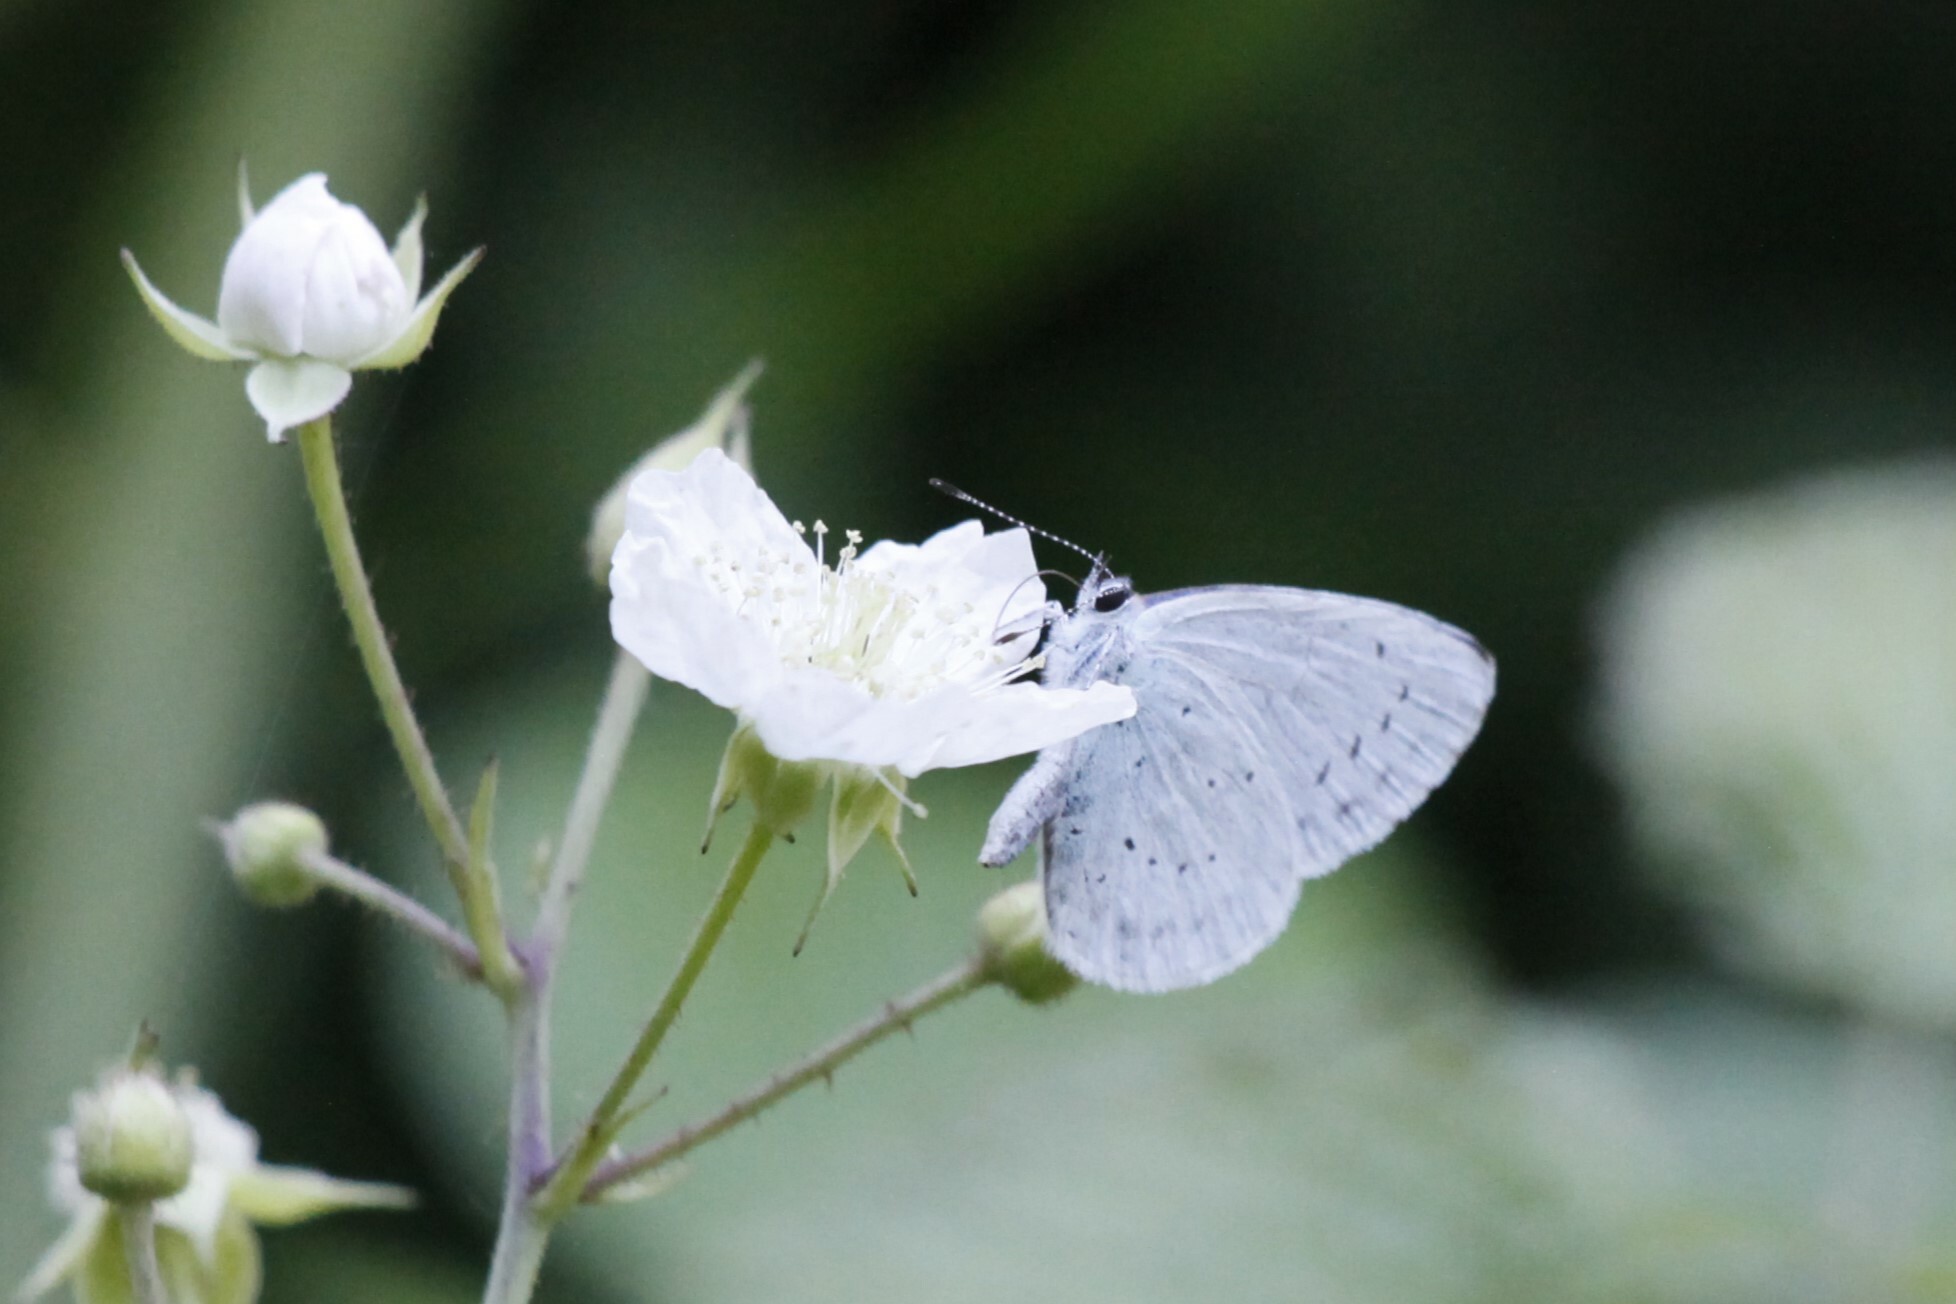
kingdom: Animalia
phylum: Arthropoda
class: Insecta
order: Lepidoptera
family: Lycaenidae
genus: Celastrina
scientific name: Celastrina argiolus
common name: Holly blue
